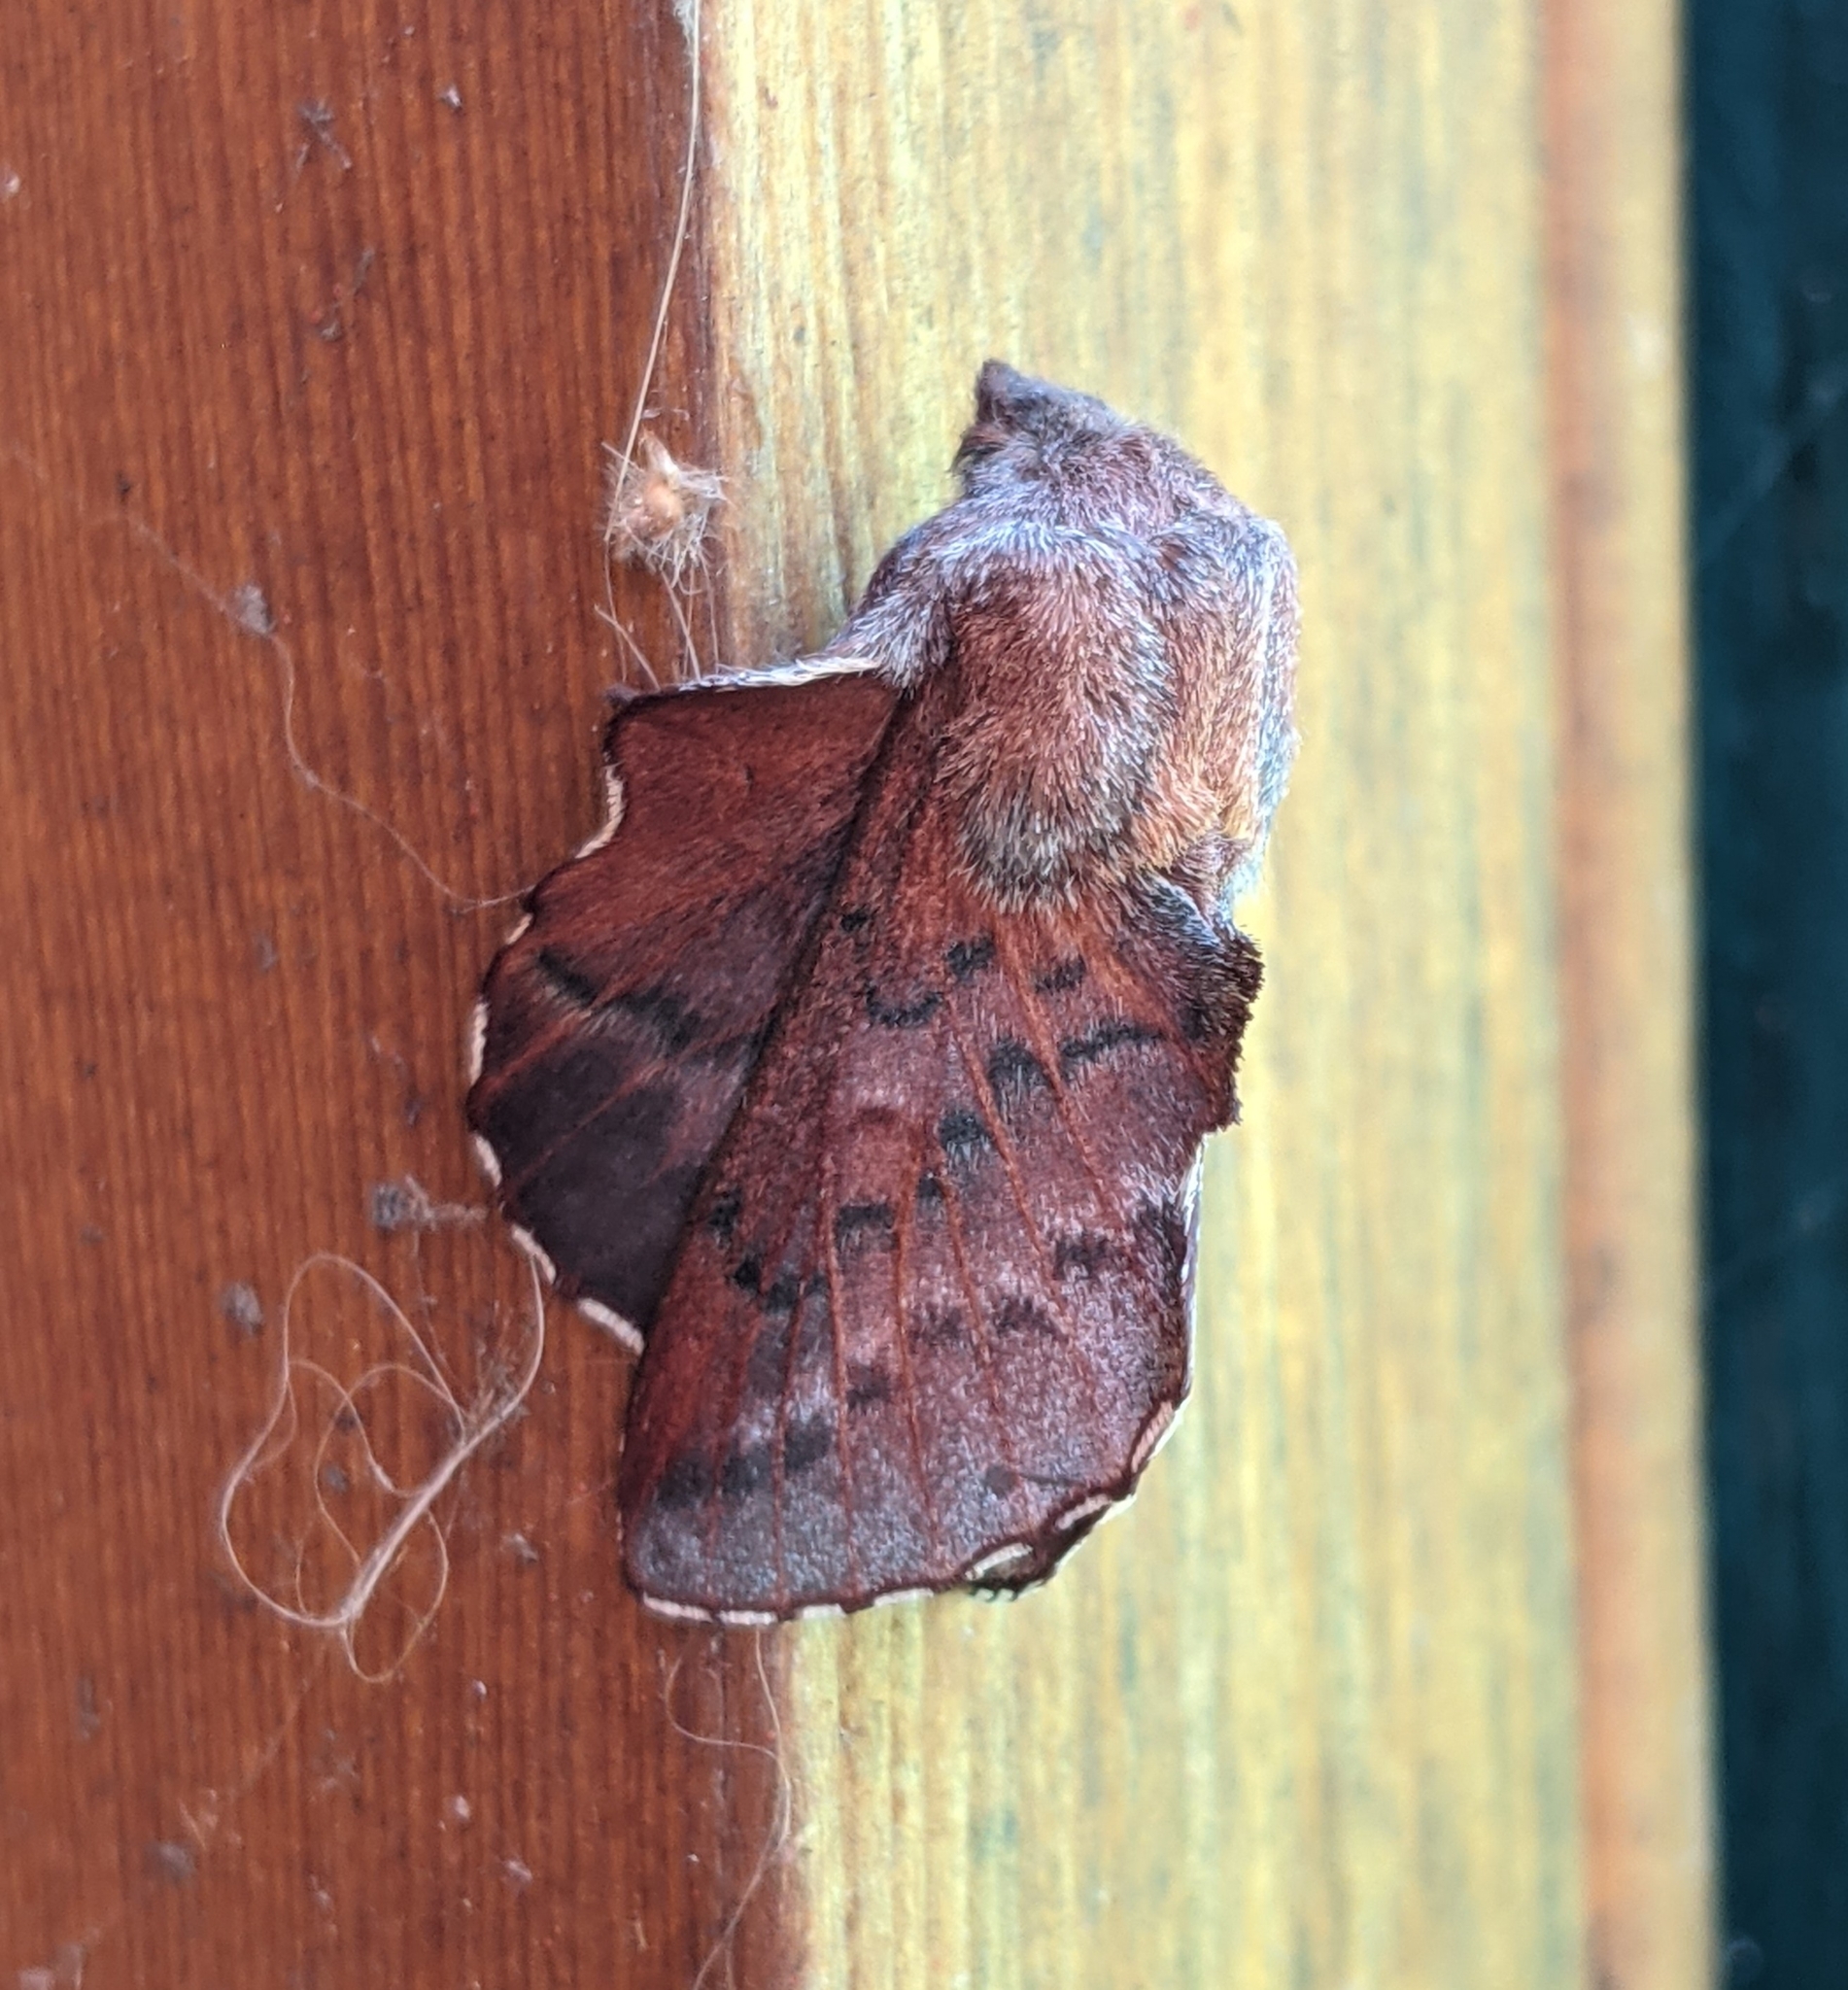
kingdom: Animalia
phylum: Arthropoda
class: Insecta
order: Lepidoptera
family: Lasiocampidae
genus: Phyllodesma
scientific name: Phyllodesma americana
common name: American lappet moth
